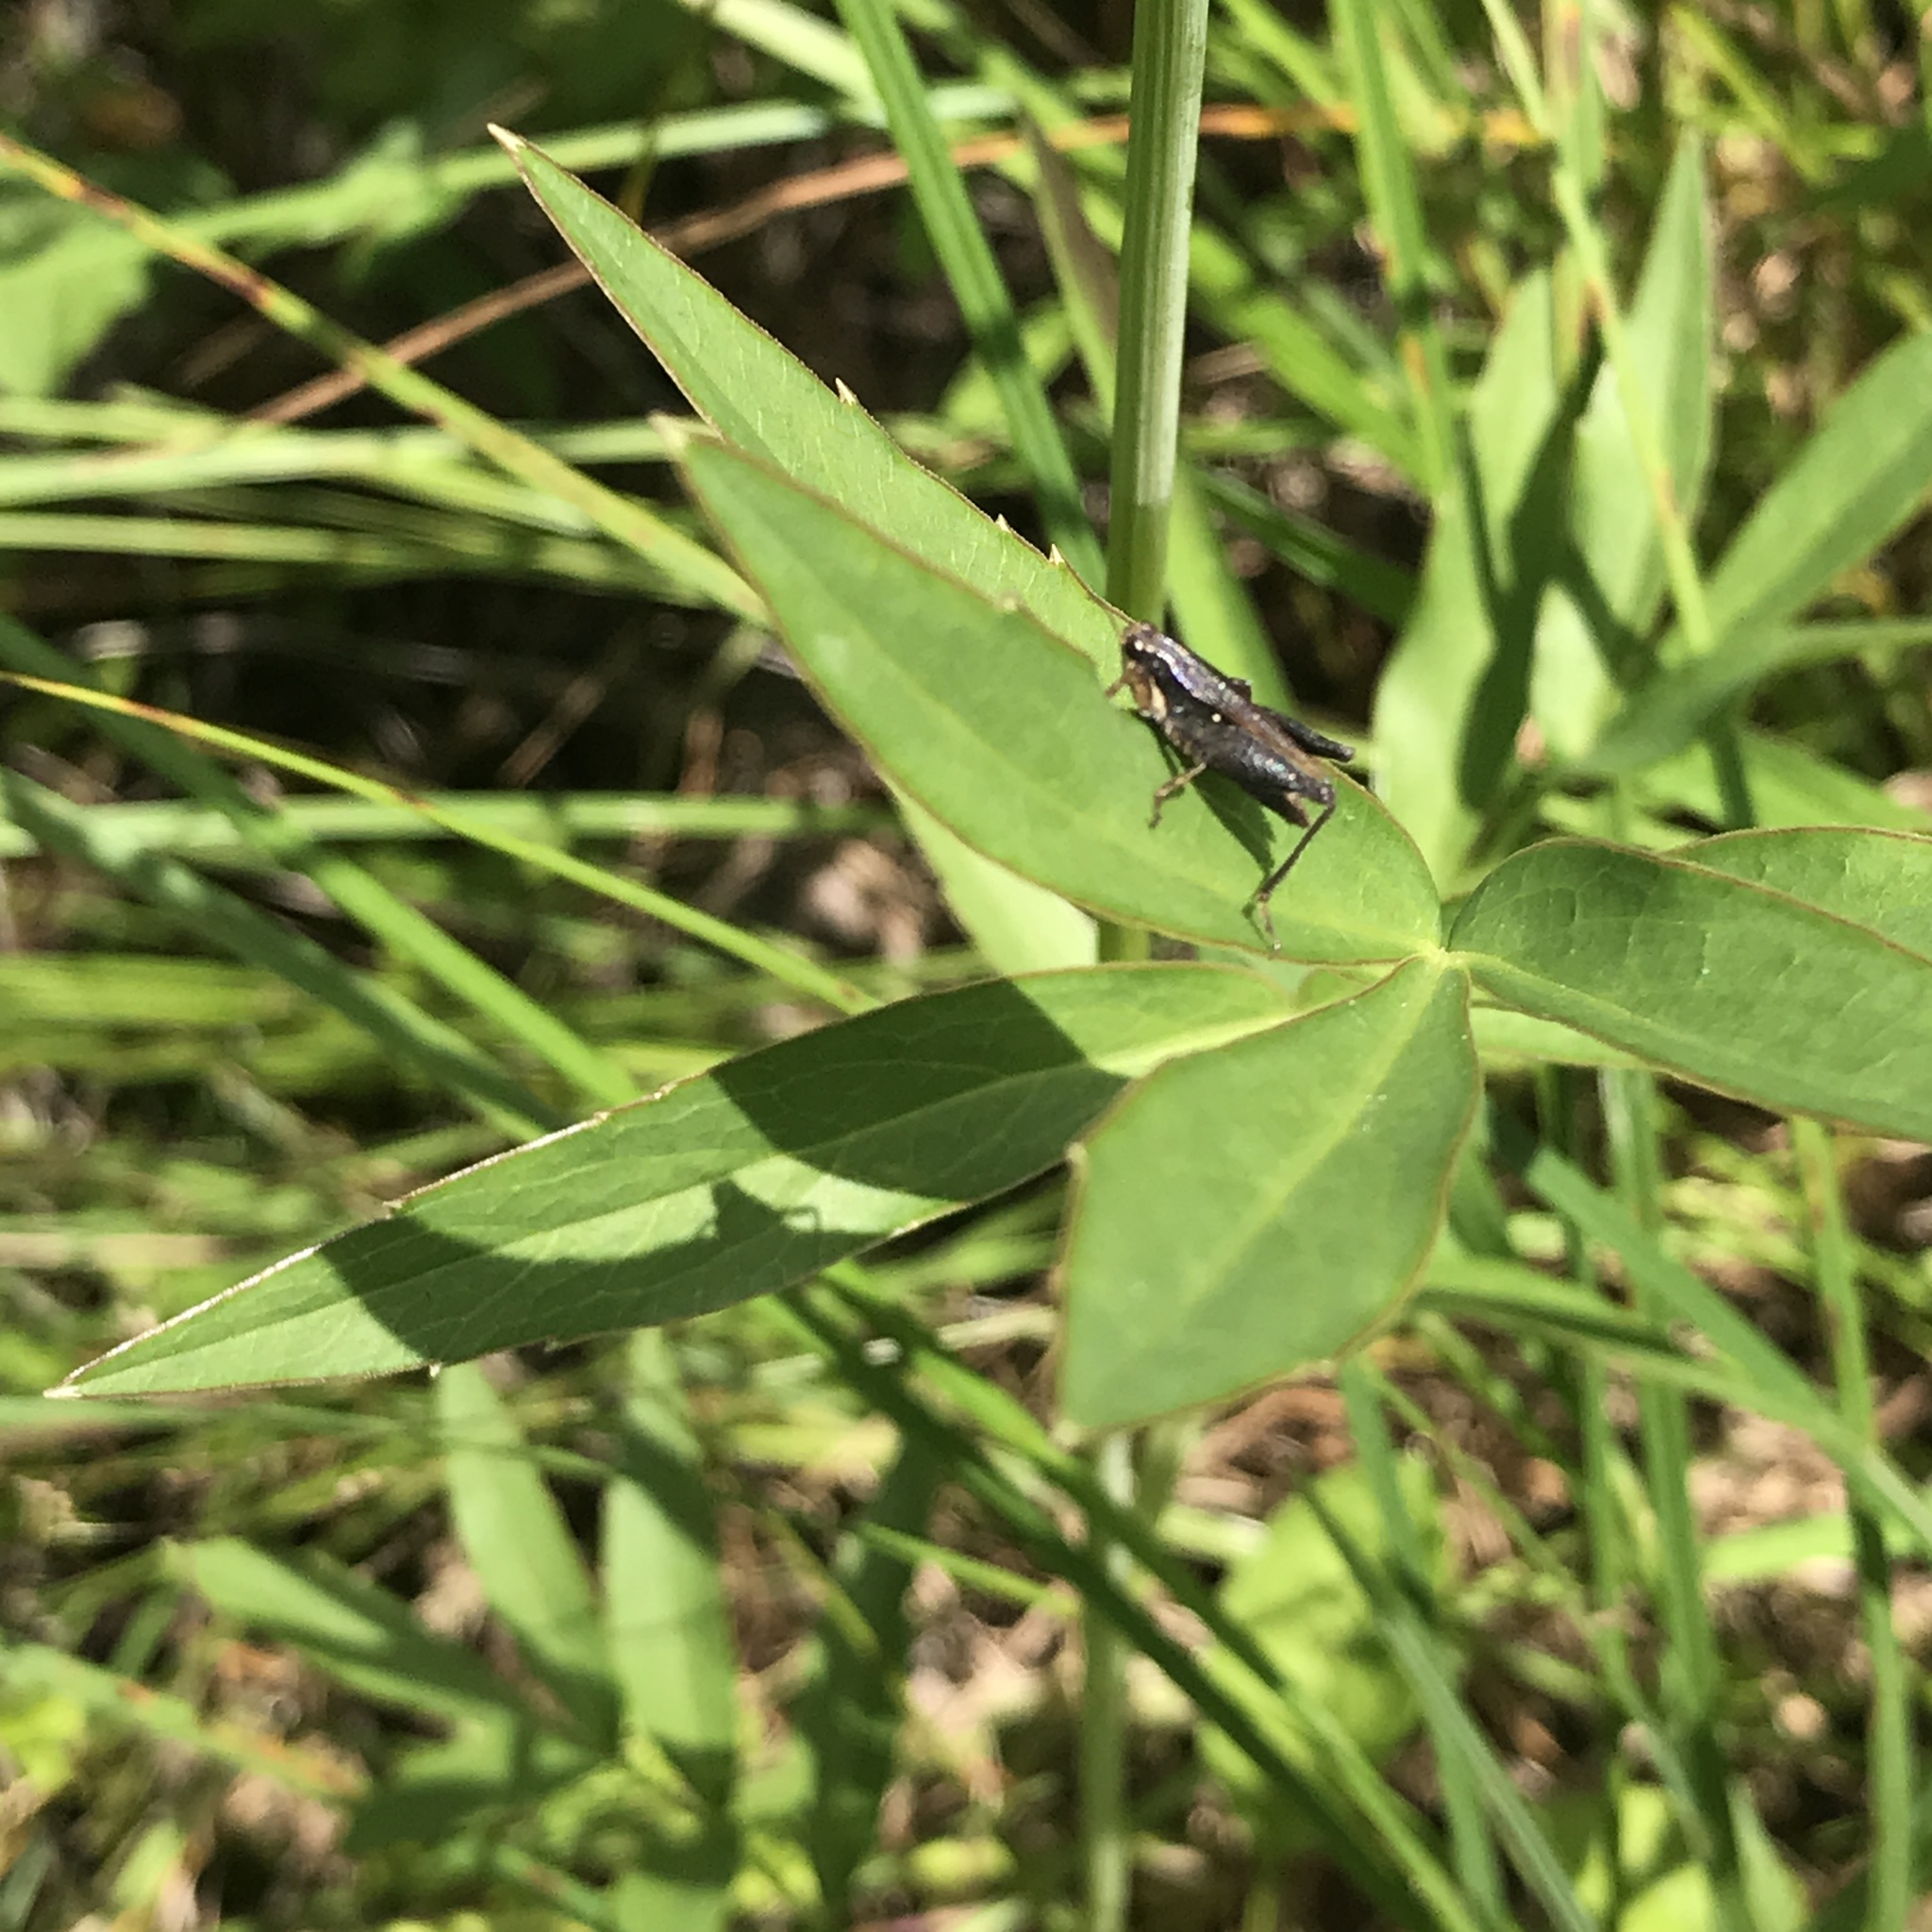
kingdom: Animalia
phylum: Arthropoda
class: Insecta
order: Orthoptera
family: Tetrigidae
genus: Tettigidea
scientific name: Tettigidea laterale
